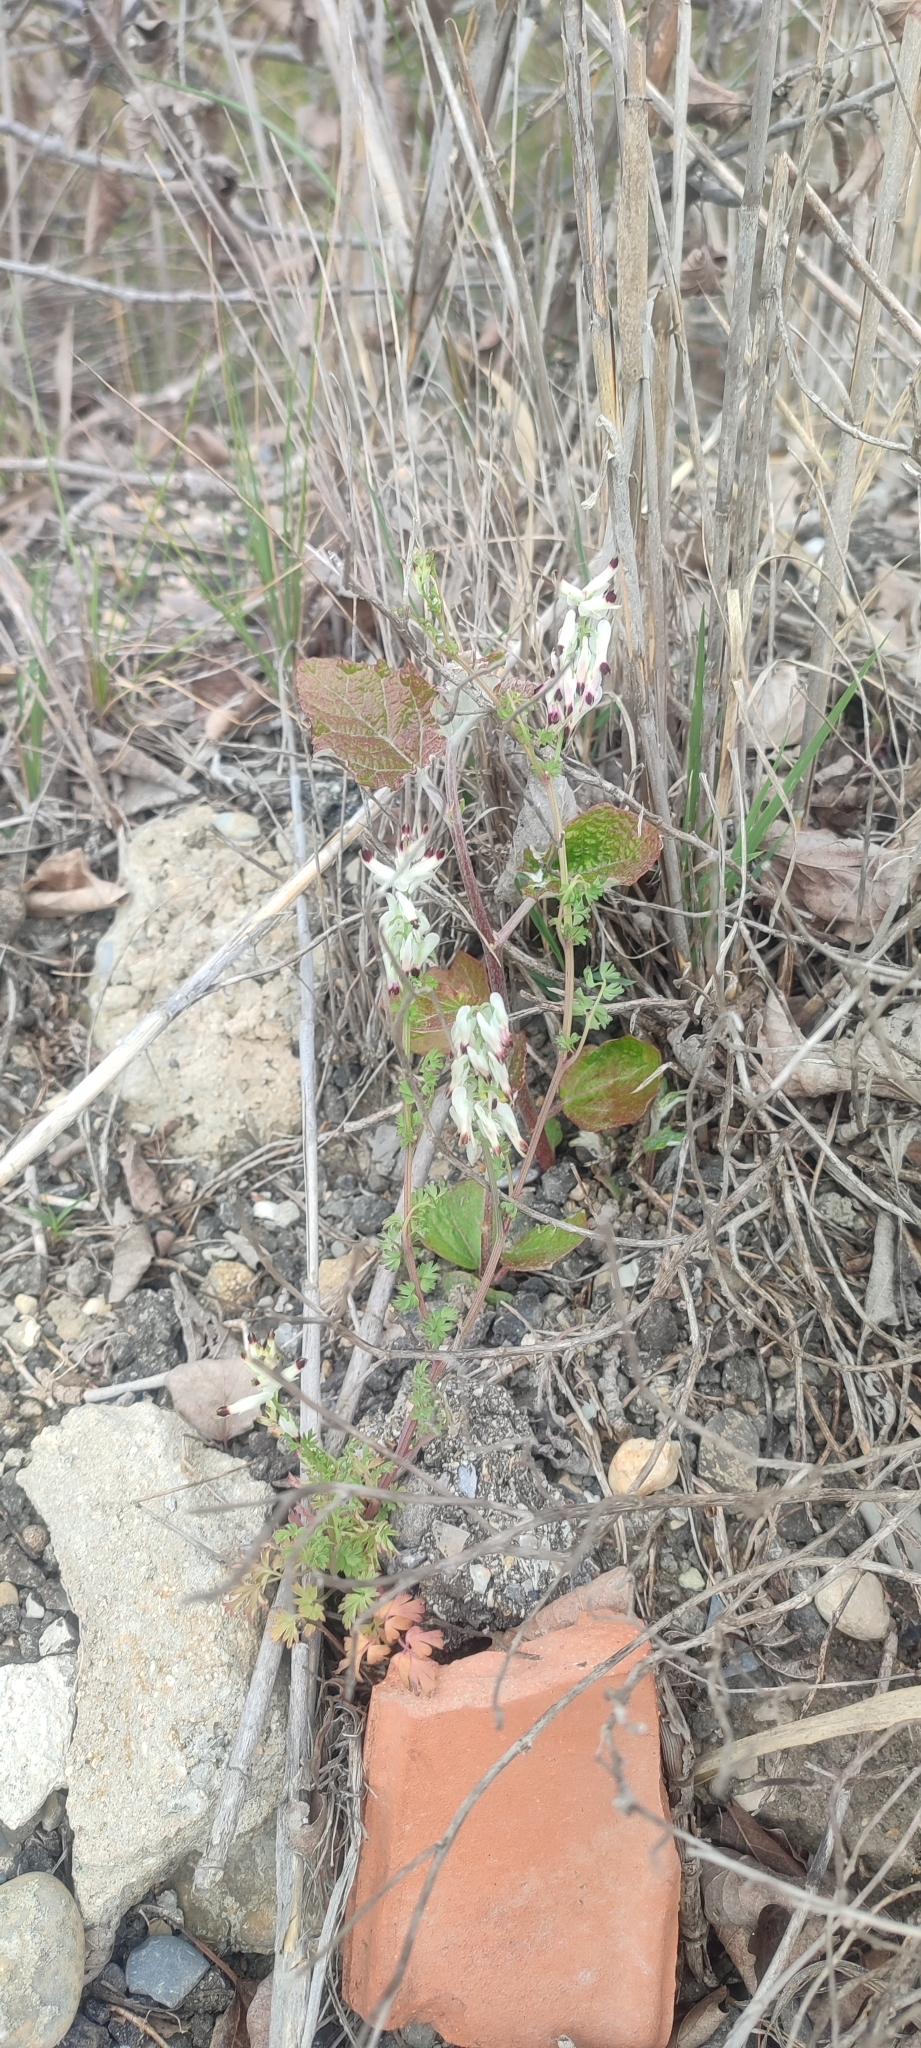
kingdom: Plantae
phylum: Tracheophyta
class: Magnoliopsida
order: Ranunculales
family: Papaveraceae
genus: Fumaria
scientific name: Fumaria capreolata
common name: White ramping-fumitory
